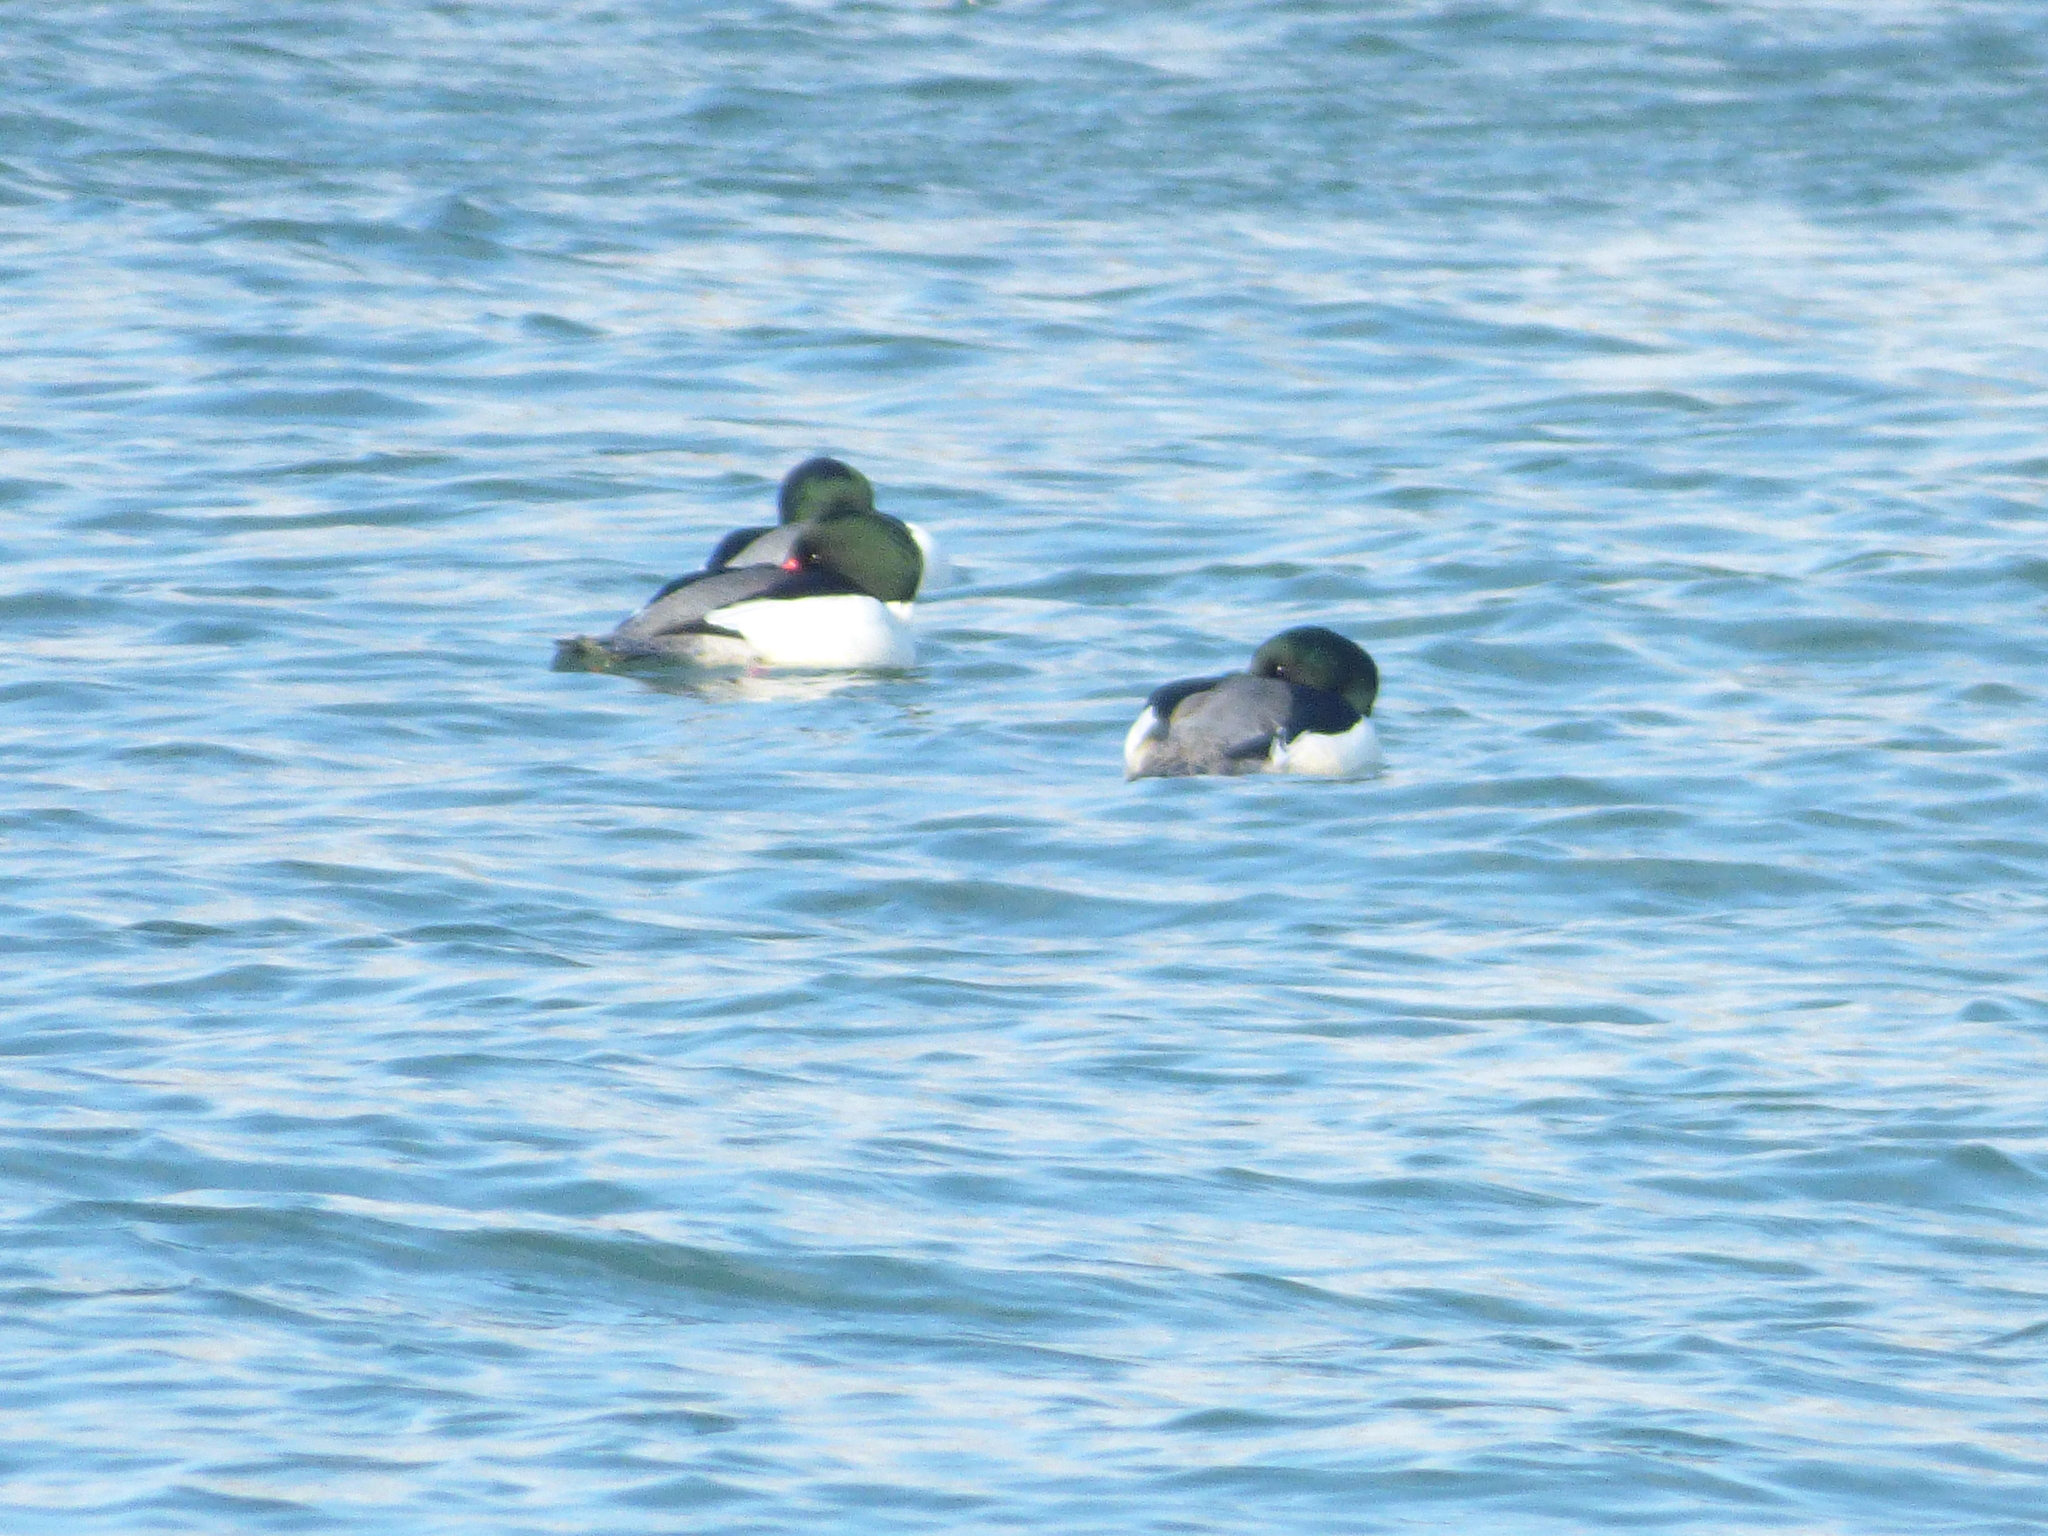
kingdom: Animalia
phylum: Chordata
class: Aves
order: Anseriformes
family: Anatidae
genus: Mergus
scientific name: Mergus merganser
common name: Common merganser
